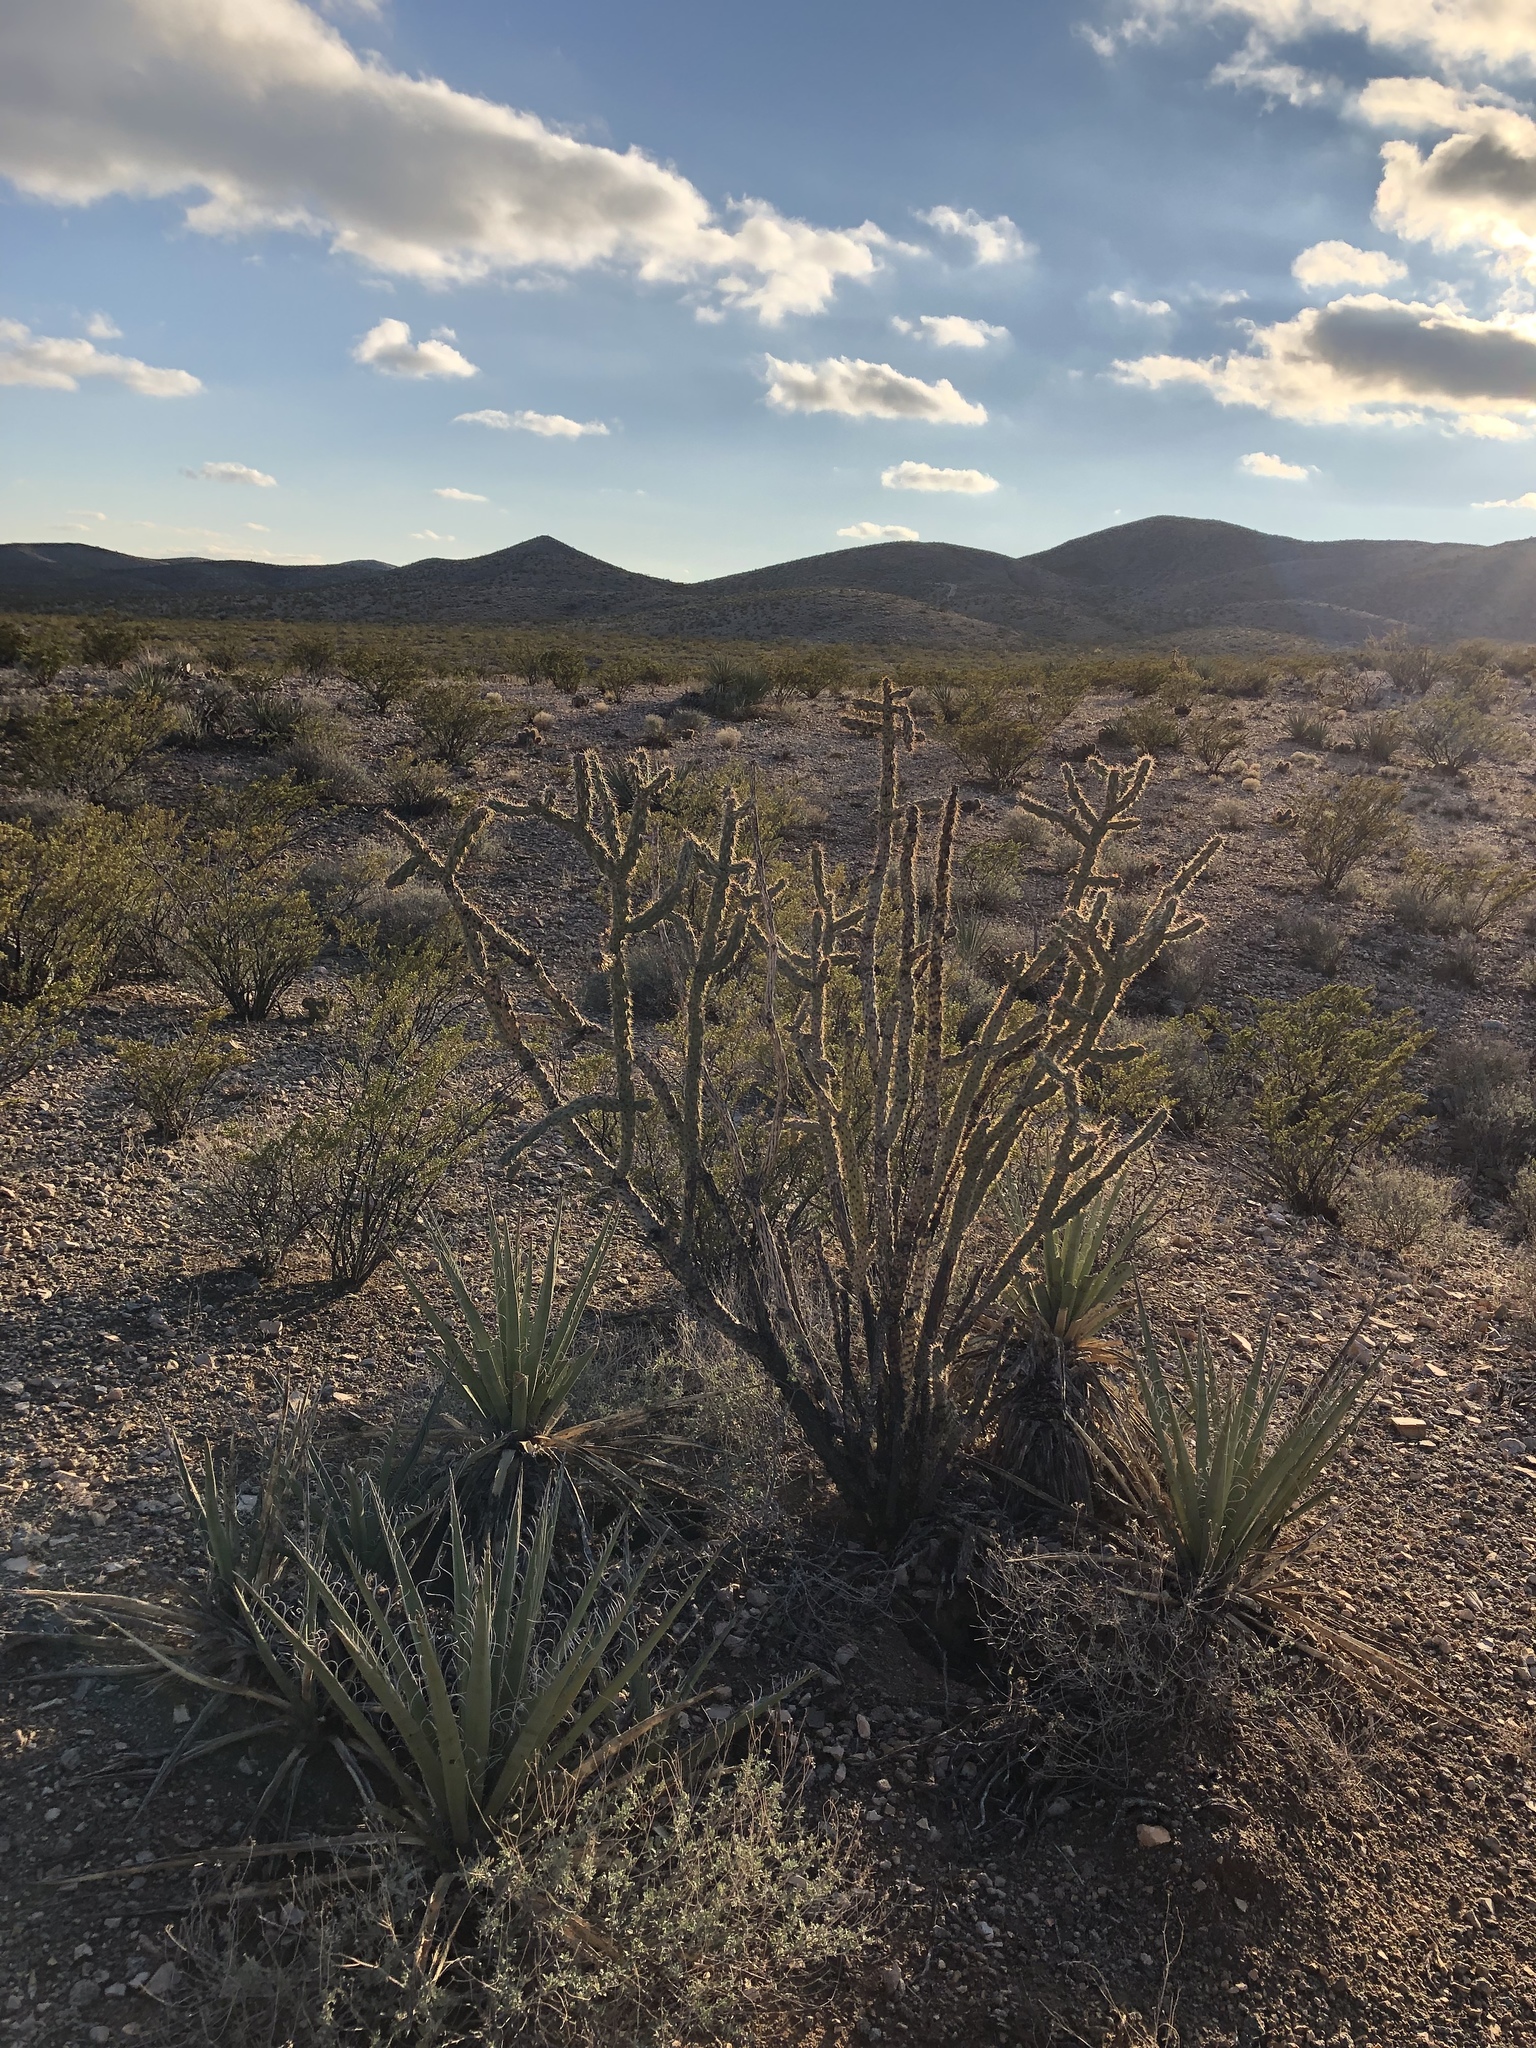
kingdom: Plantae
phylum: Tracheophyta
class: Magnoliopsida
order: Caryophyllales
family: Cactaceae
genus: Cylindropuntia
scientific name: Cylindropuntia imbricata
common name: Candelabrum cactus
